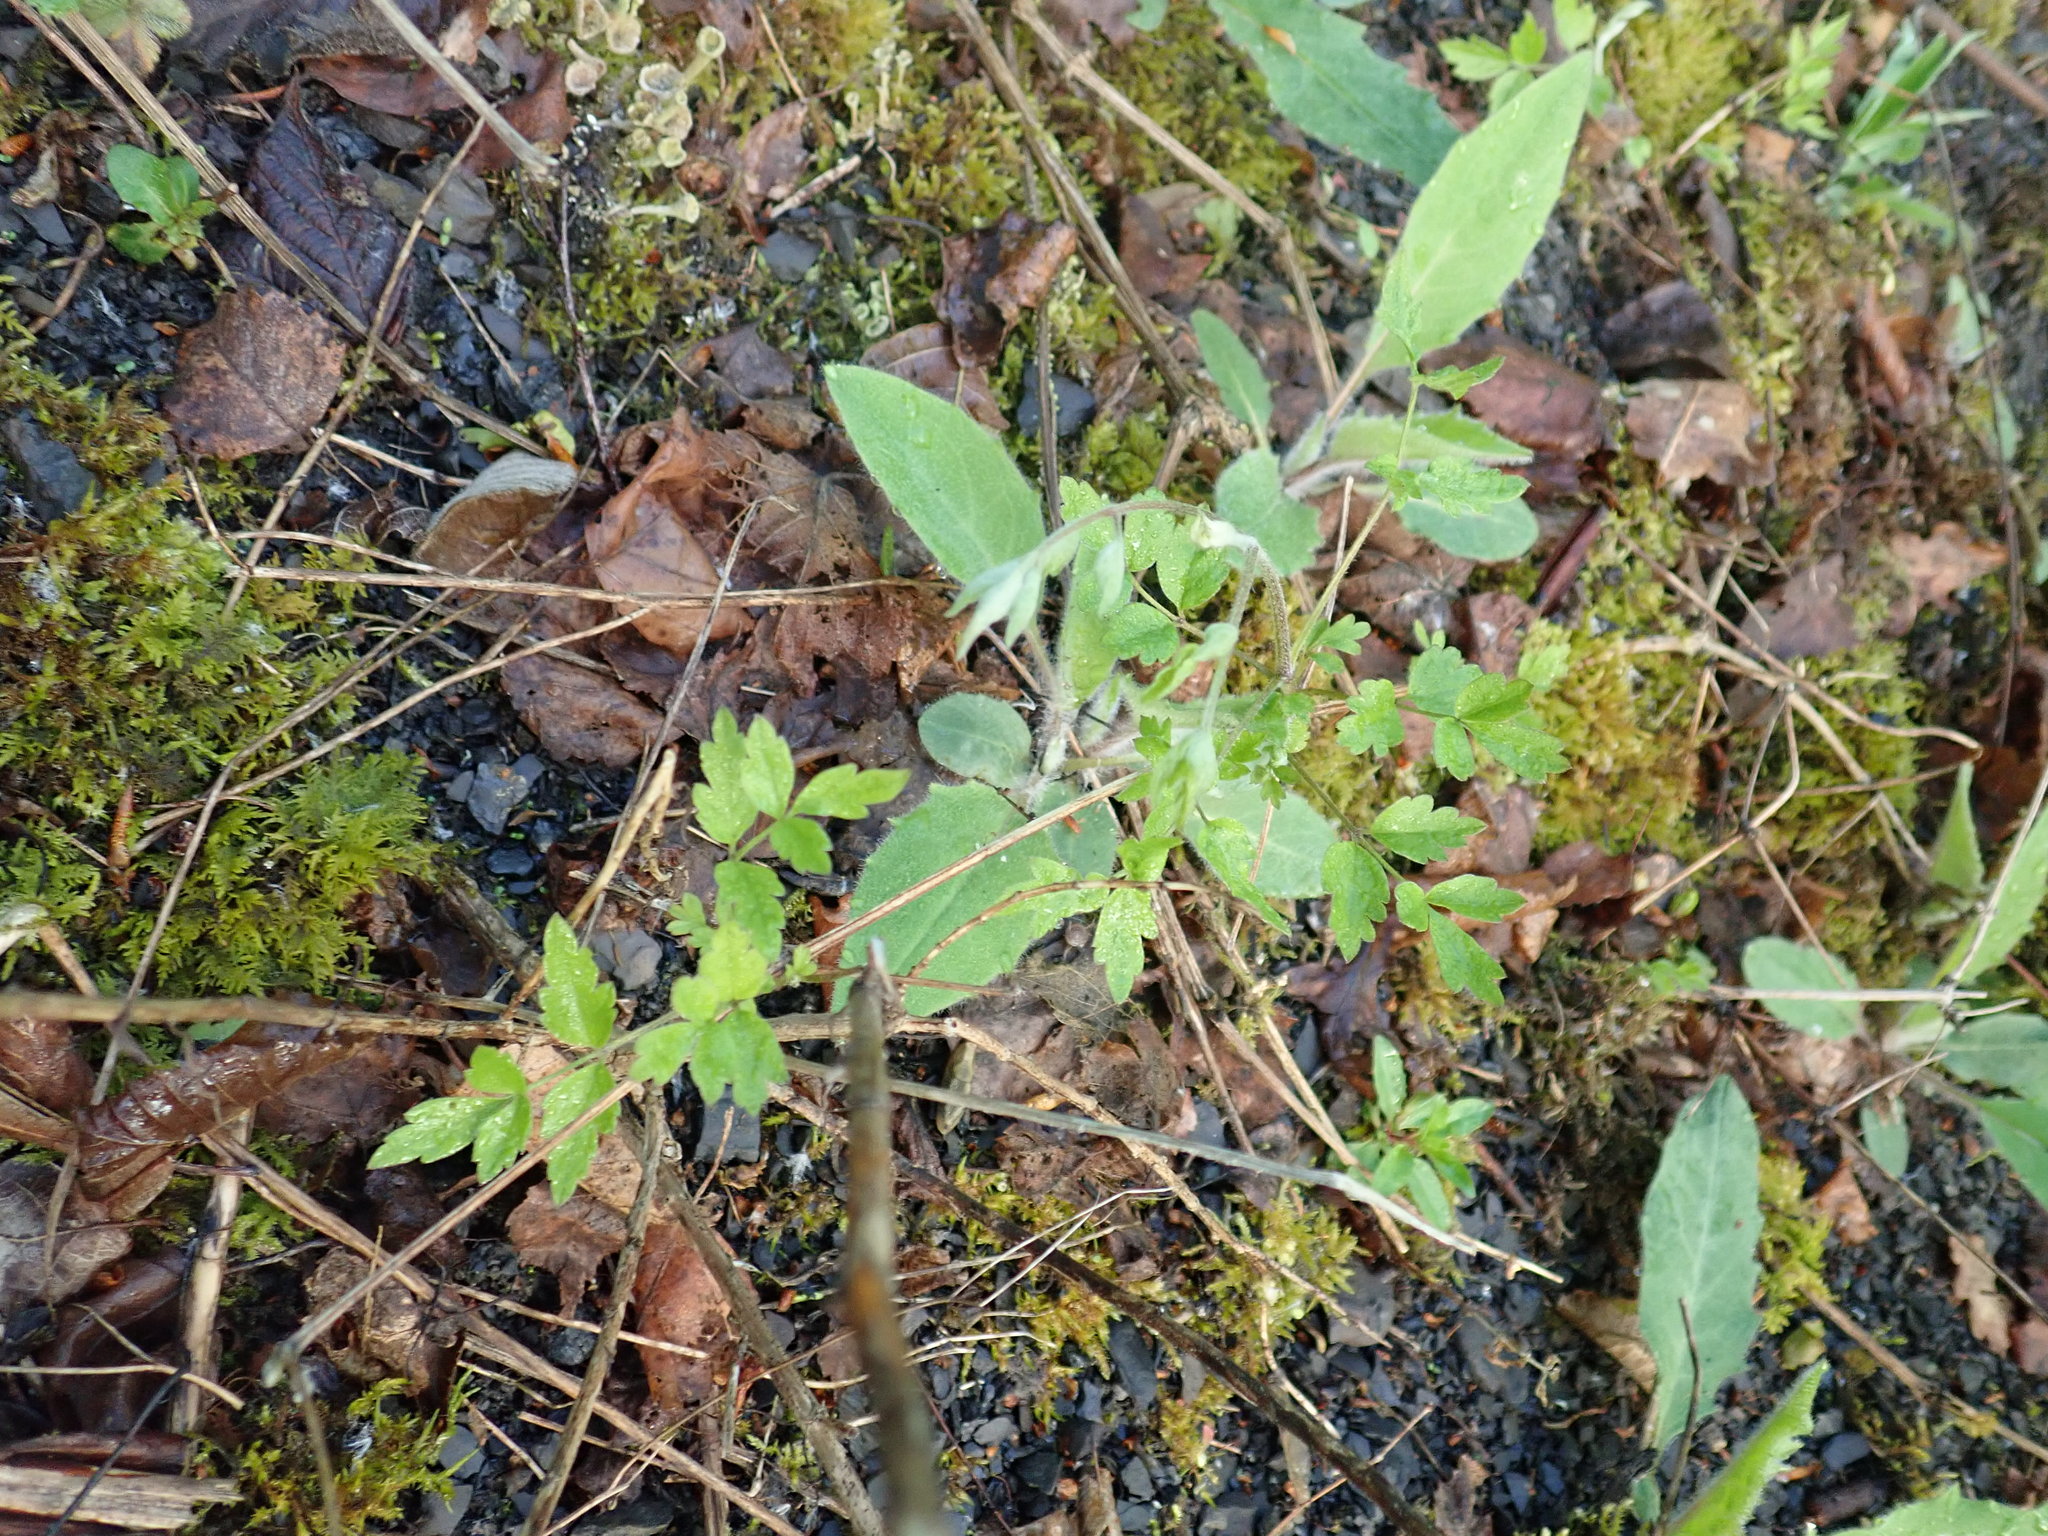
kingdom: Plantae
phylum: Tracheophyta
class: Magnoliopsida
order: Ranunculales
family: Ranunculaceae
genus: Clematis
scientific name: Clematis vitalba
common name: Evergreen clematis
